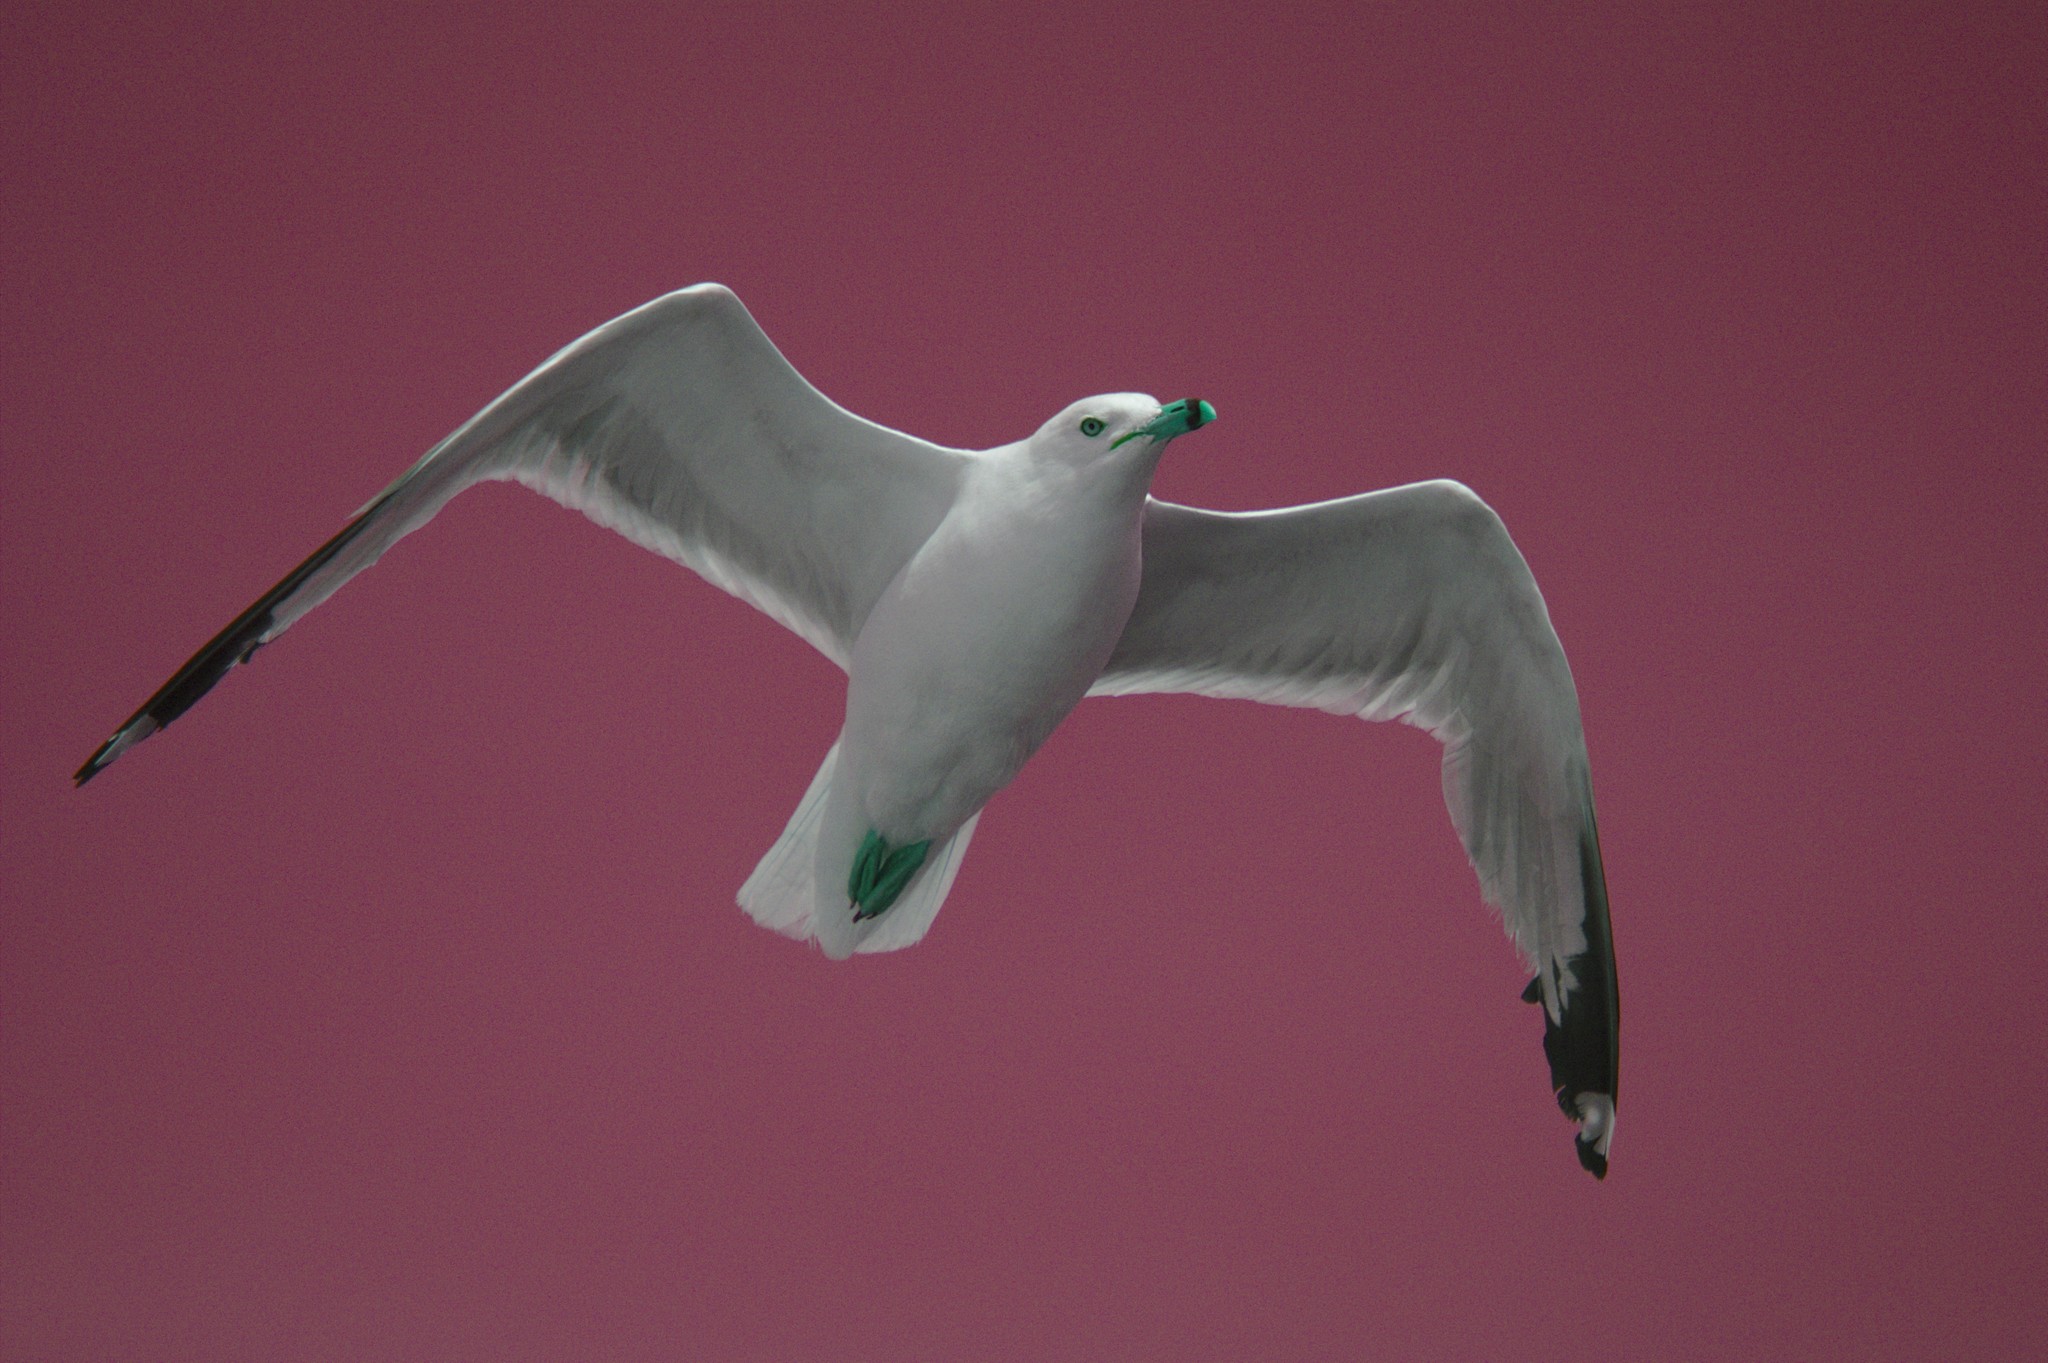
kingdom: Animalia
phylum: Chordata
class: Aves
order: Charadriiformes
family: Laridae
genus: Larus
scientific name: Larus delawarensis
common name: Ring-billed gull
